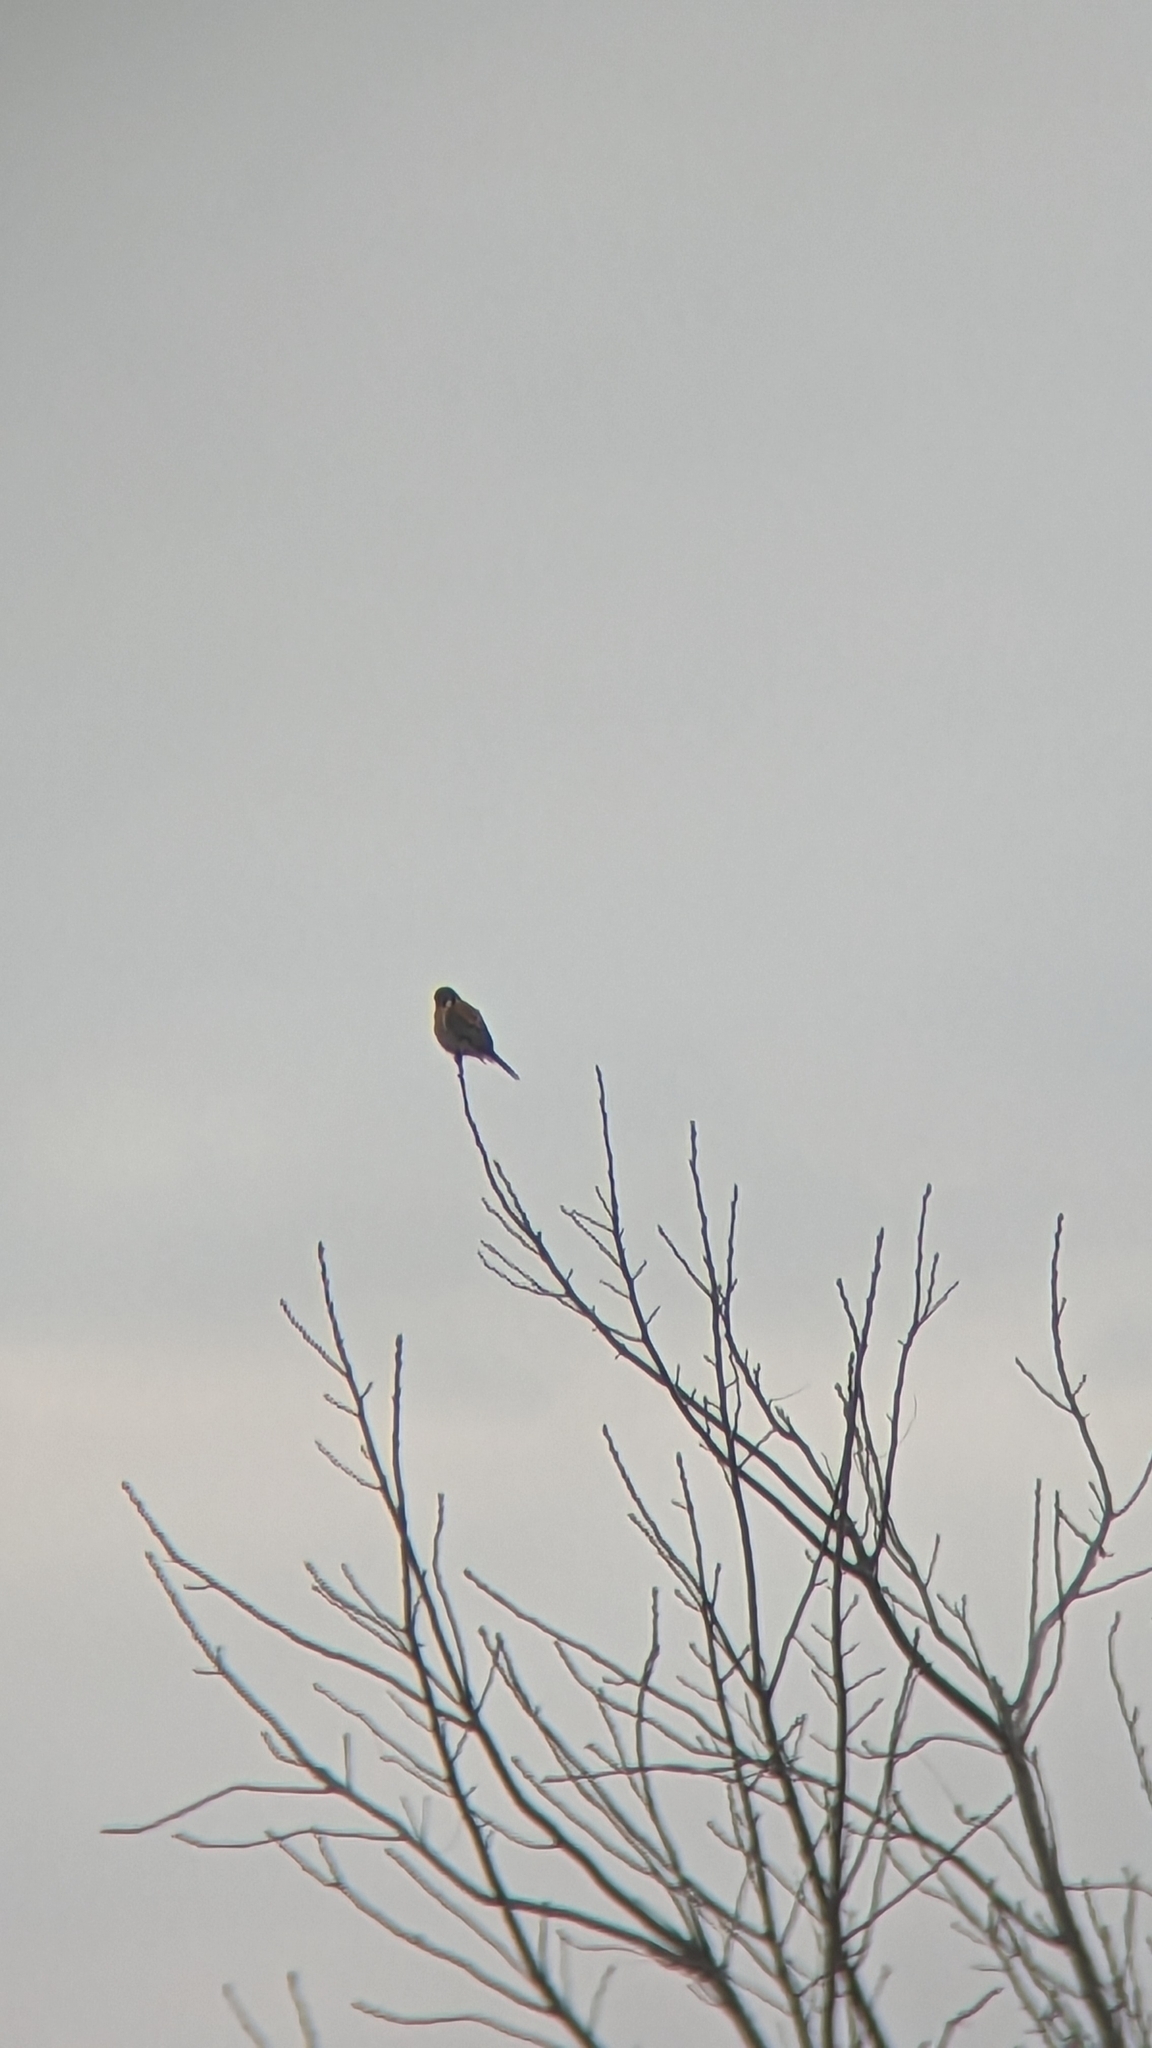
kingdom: Animalia
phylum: Chordata
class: Aves
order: Falconiformes
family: Falconidae
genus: Falco
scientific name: Falco sparverius
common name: American kestrel
